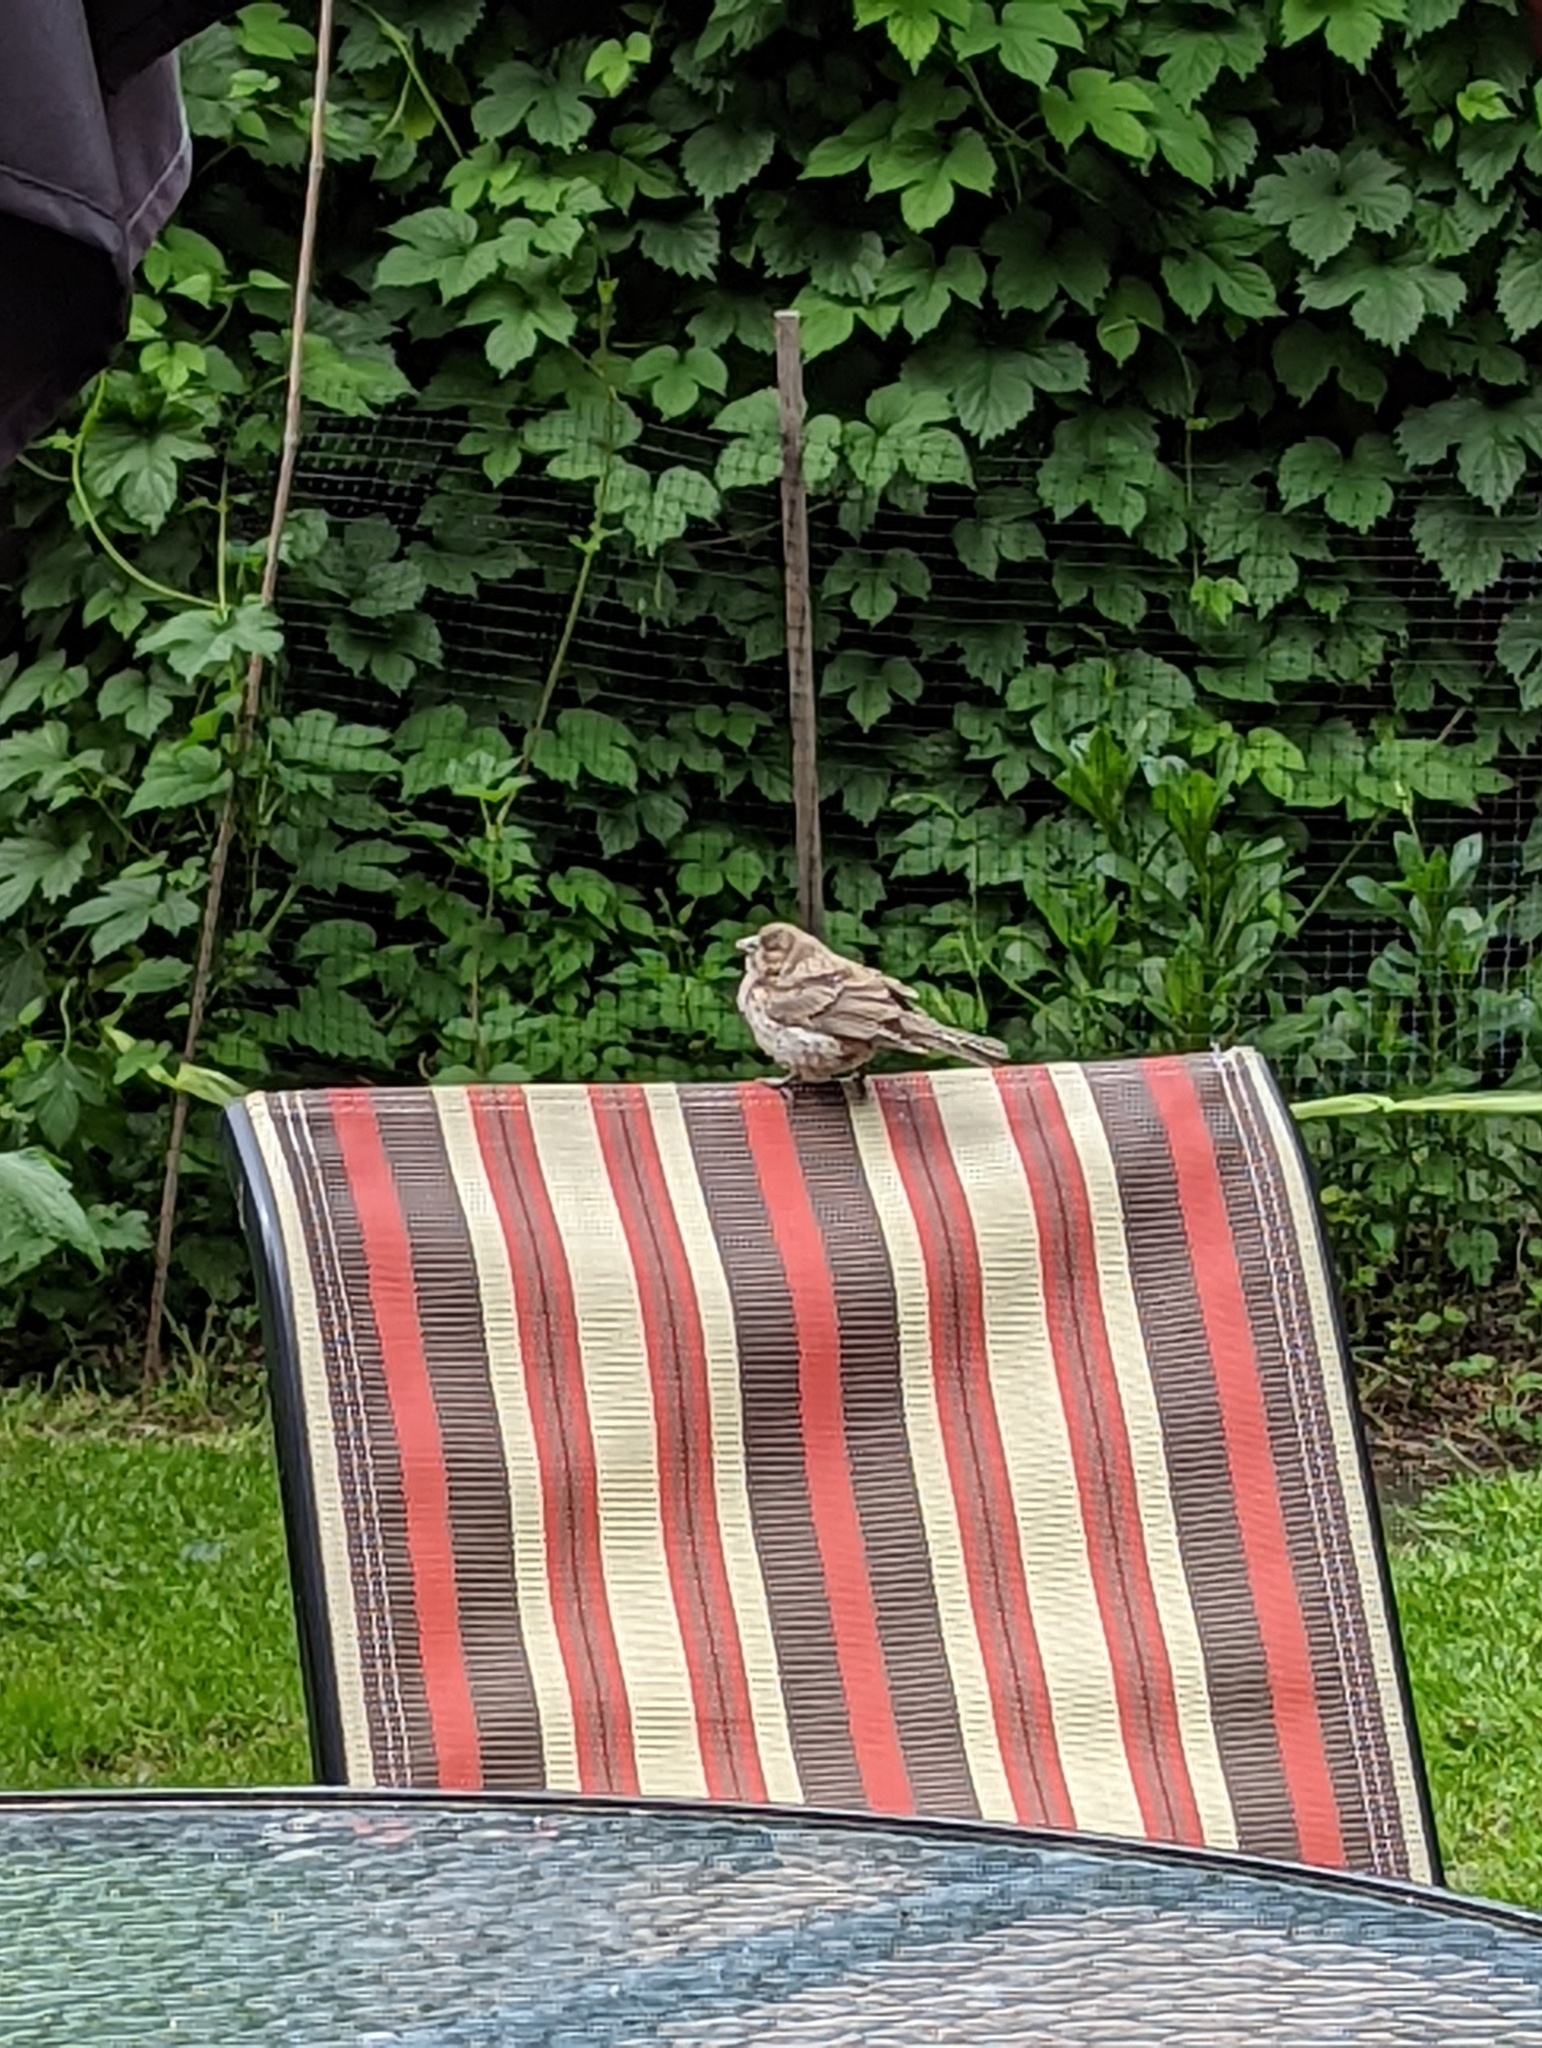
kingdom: Animalia
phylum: Chordata
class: Aves
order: Passeriformes
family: Fringillidae
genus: Haemorhous
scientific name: Haemorhous mexicanus
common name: House finch
